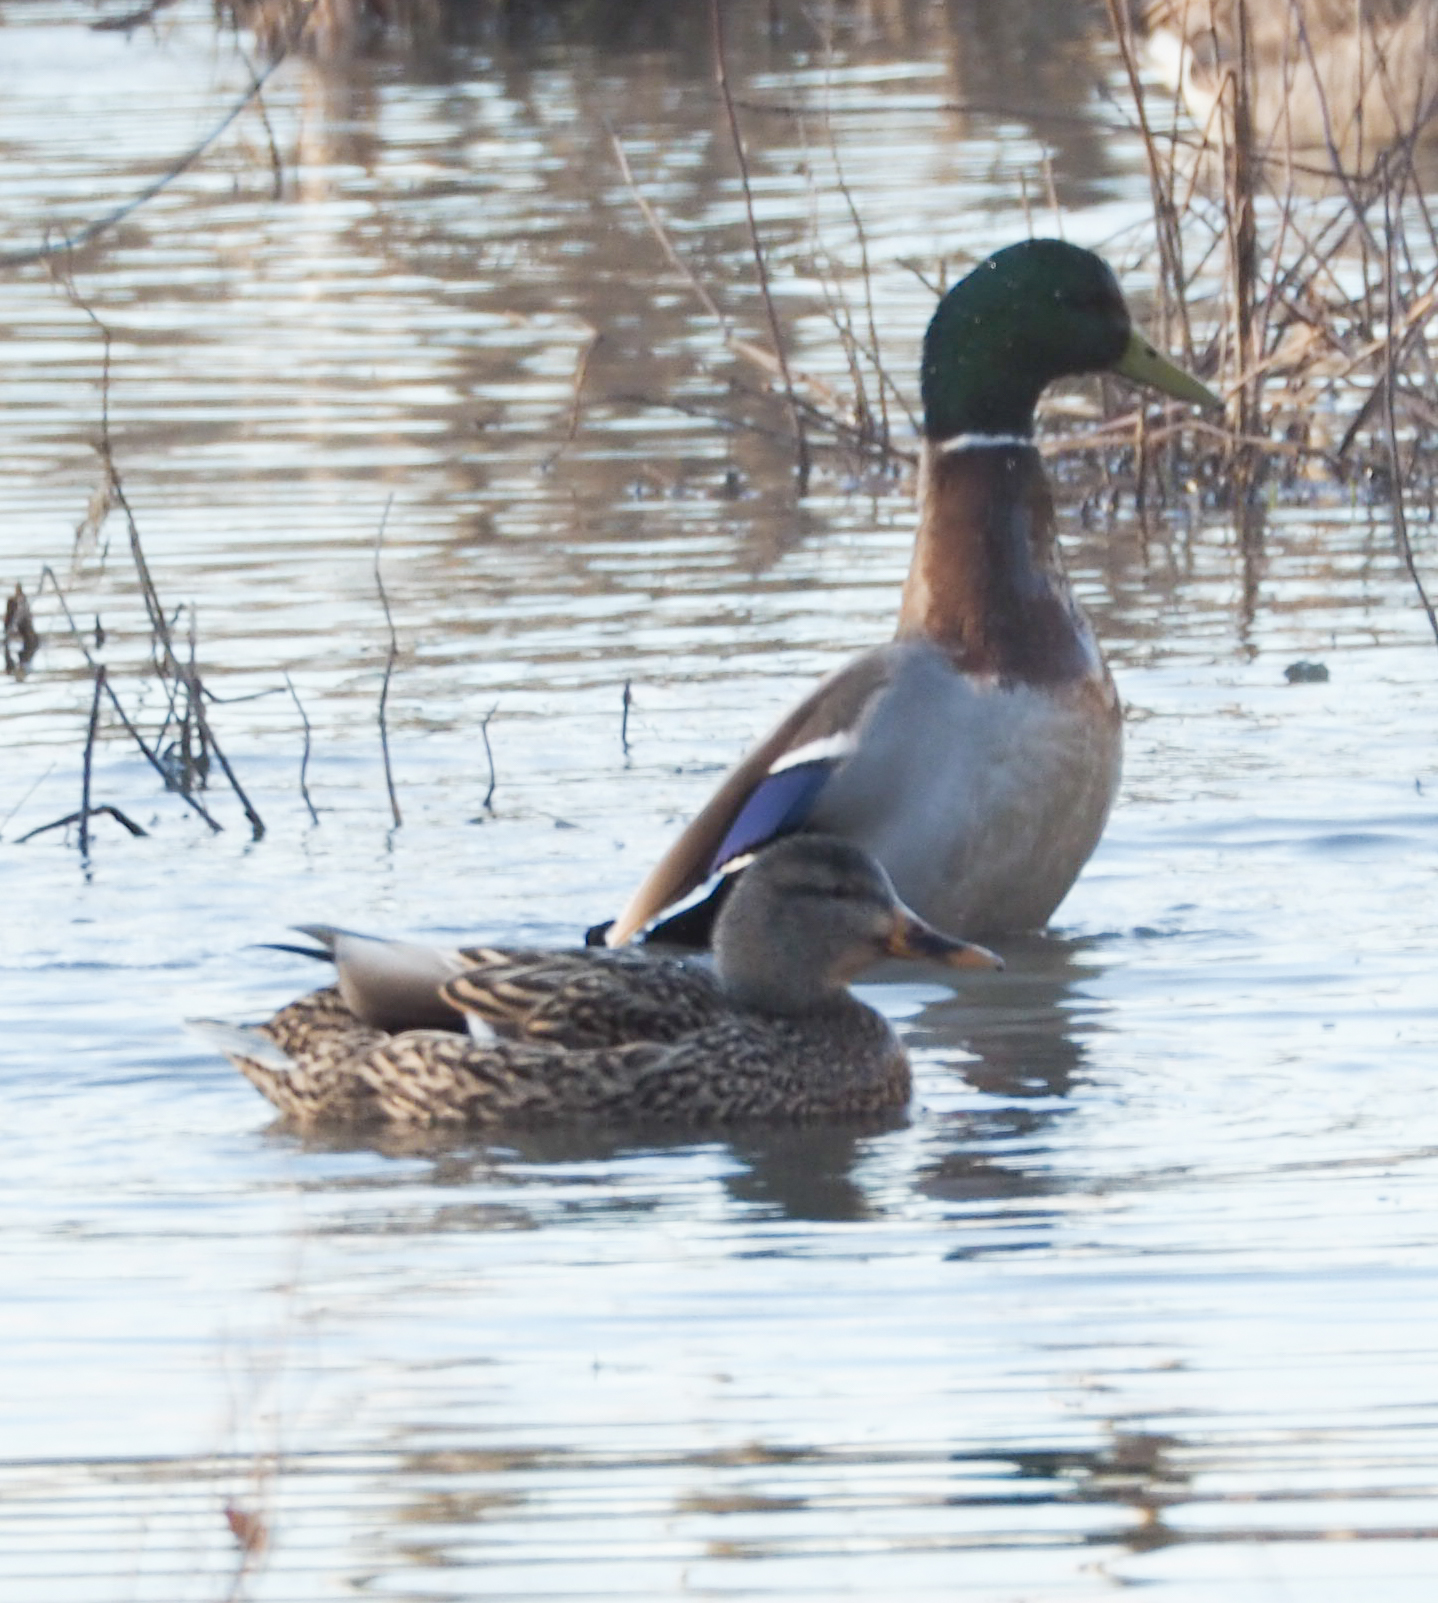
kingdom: Animalia
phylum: Chordata
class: Aves
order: Anseriformes
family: Anatidae
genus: Anas
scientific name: Anas platyrhynchos
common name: Mallard
